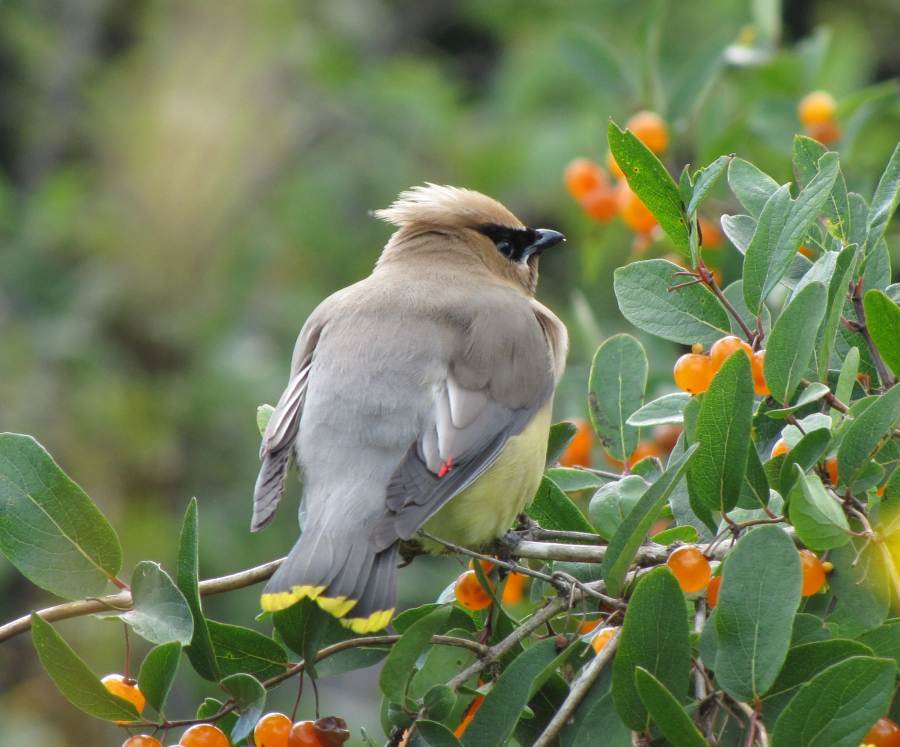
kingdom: Animalia
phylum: Chordata
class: Aves
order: Passeriformes
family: Bombycillidae
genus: Bombycilla
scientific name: Bombycilla cedrorum
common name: Cedar waxwing
